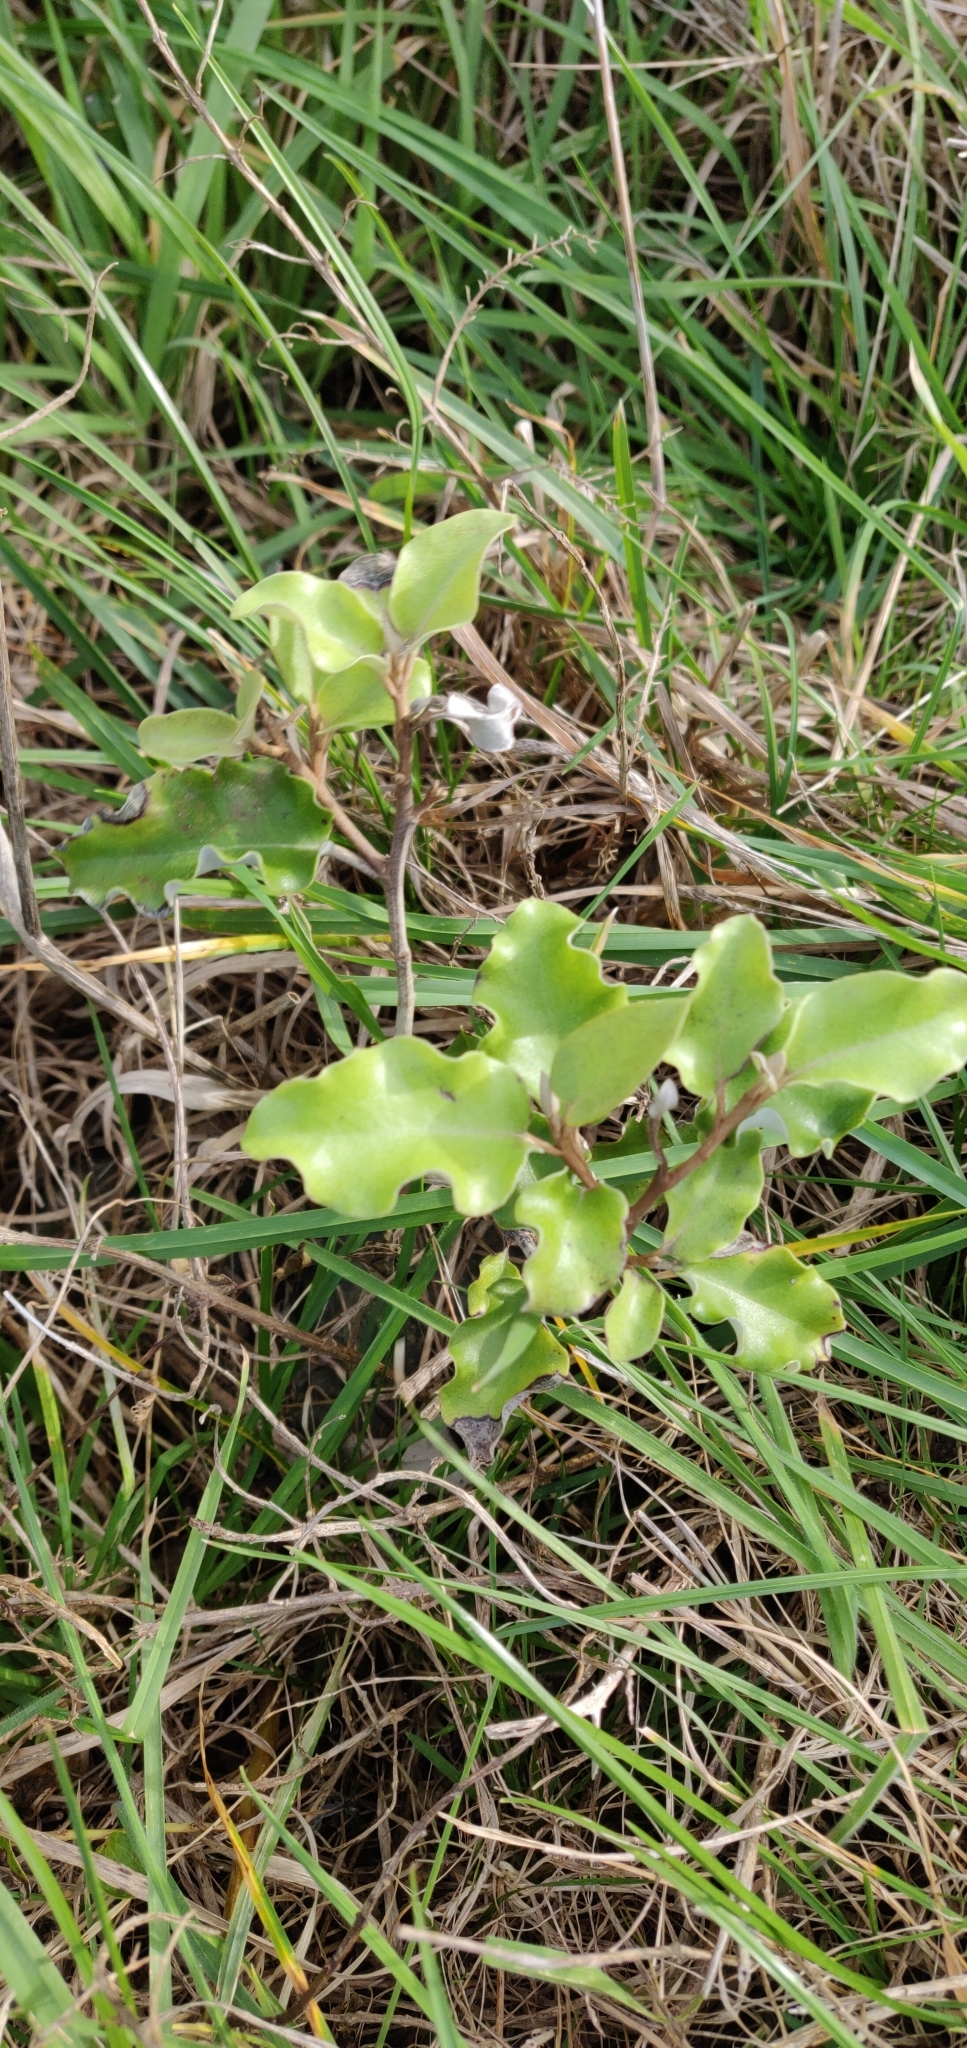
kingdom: Plantae
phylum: Tracheophyta
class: Magnoliopsida
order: Asterales
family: Asteraceae
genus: Olearia
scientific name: Olearia paniculata
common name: Akiraho
